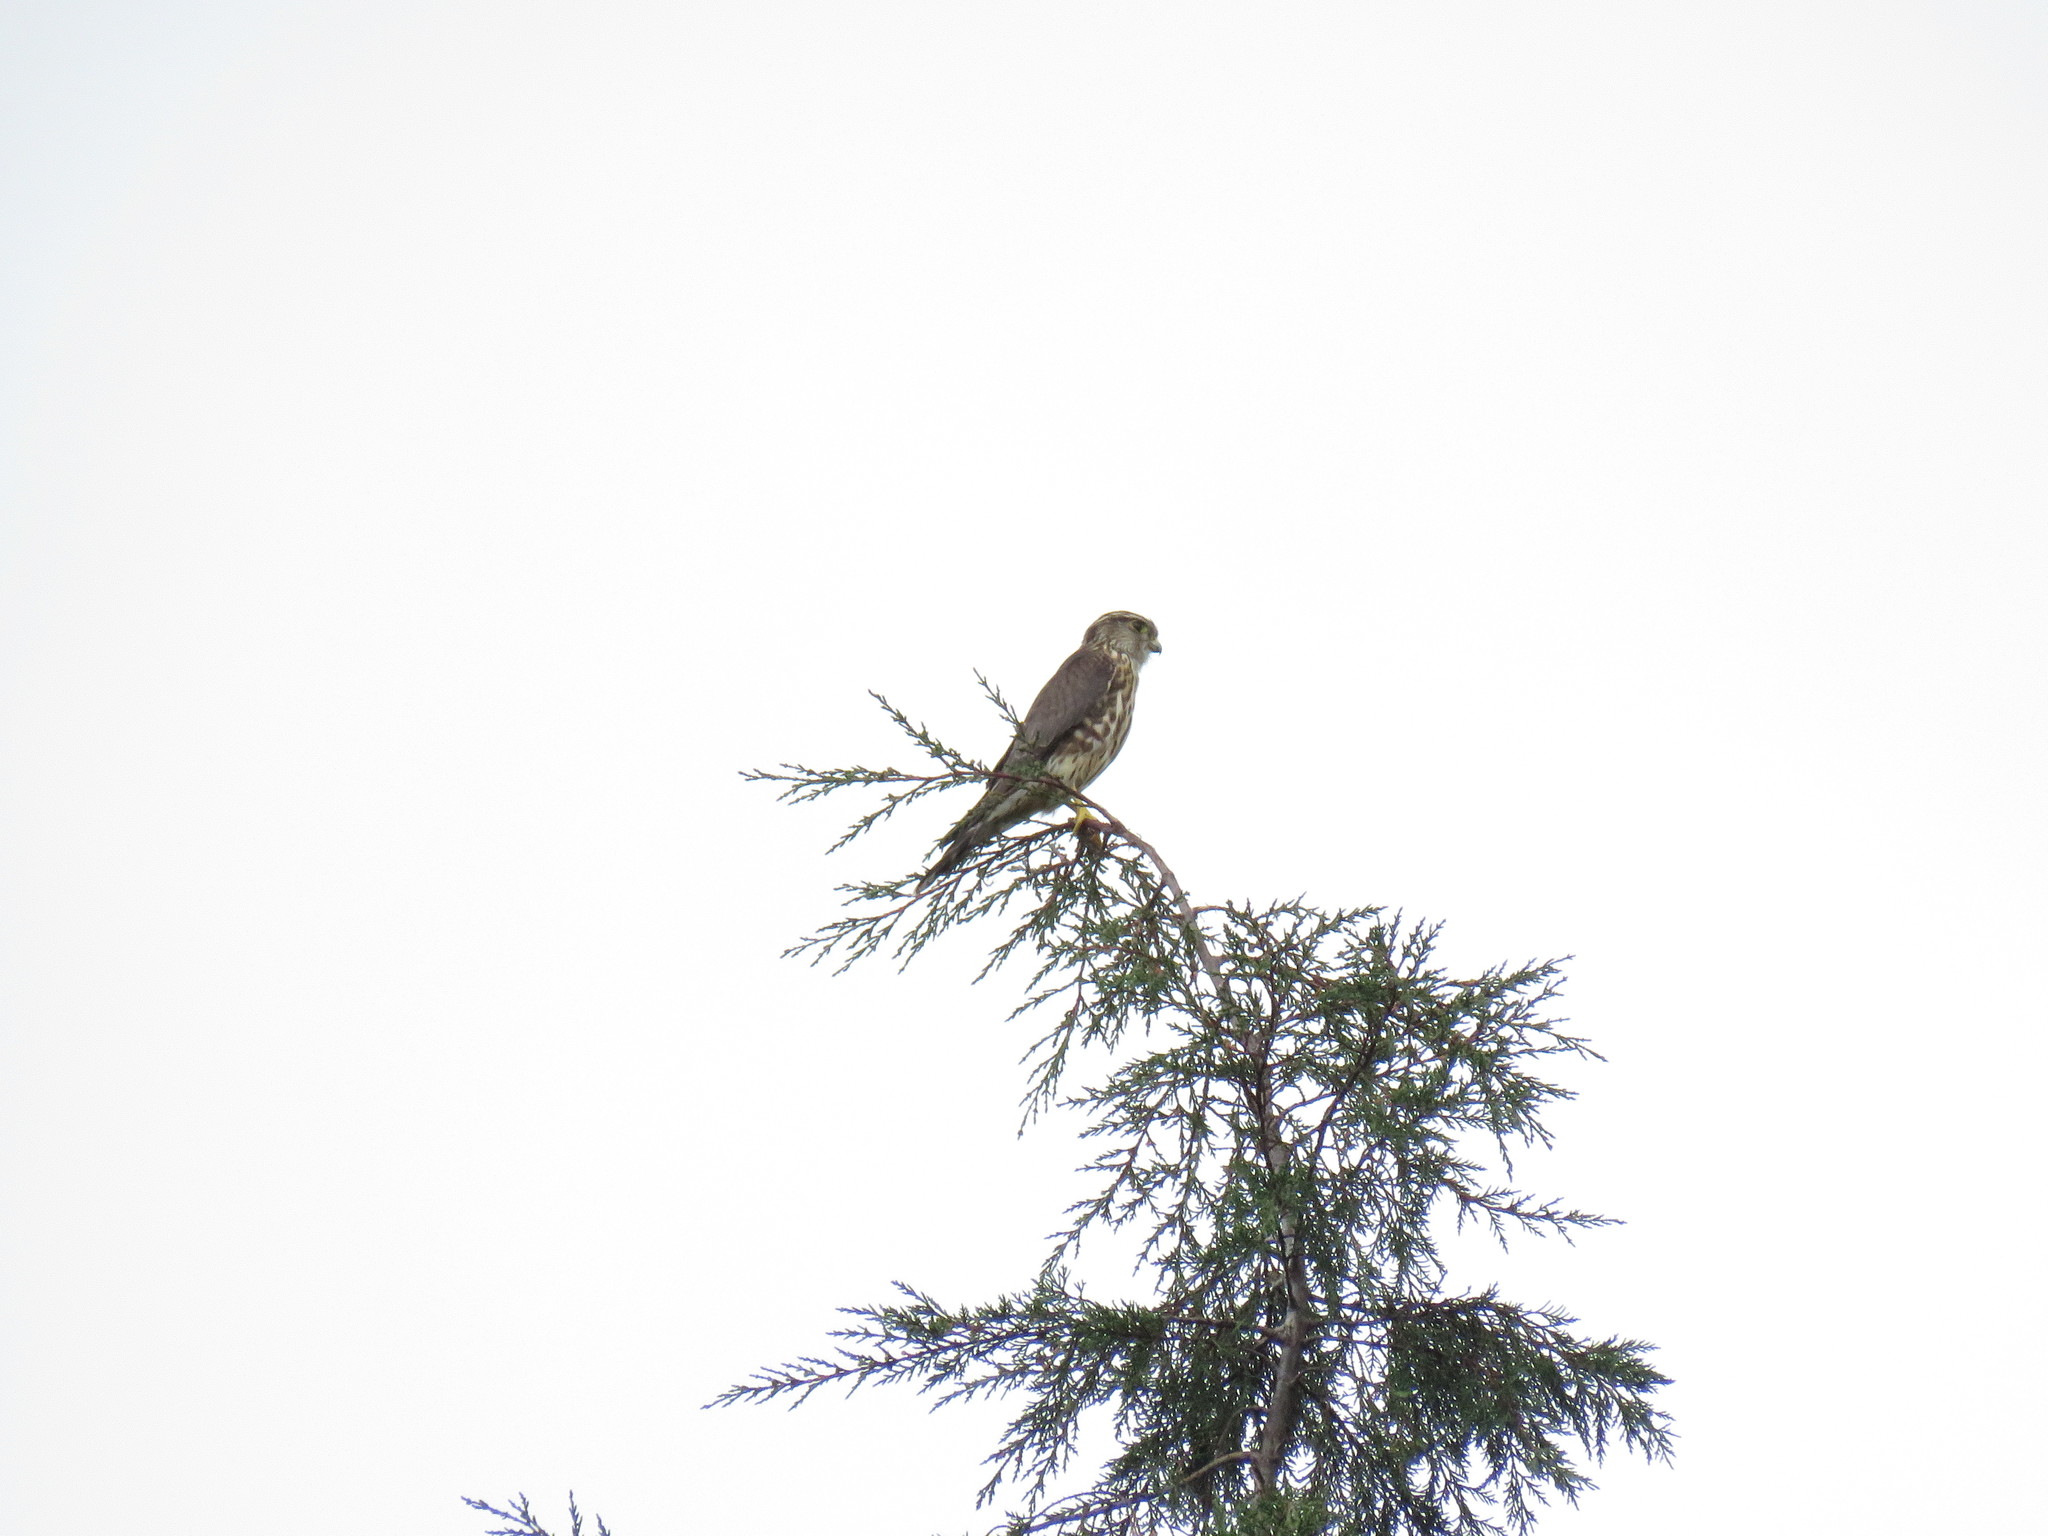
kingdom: Animalia
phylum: Chordata
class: Aves
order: Falconiformes
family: Falconidae
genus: Falco
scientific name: Falco columbarius
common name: Merlin
